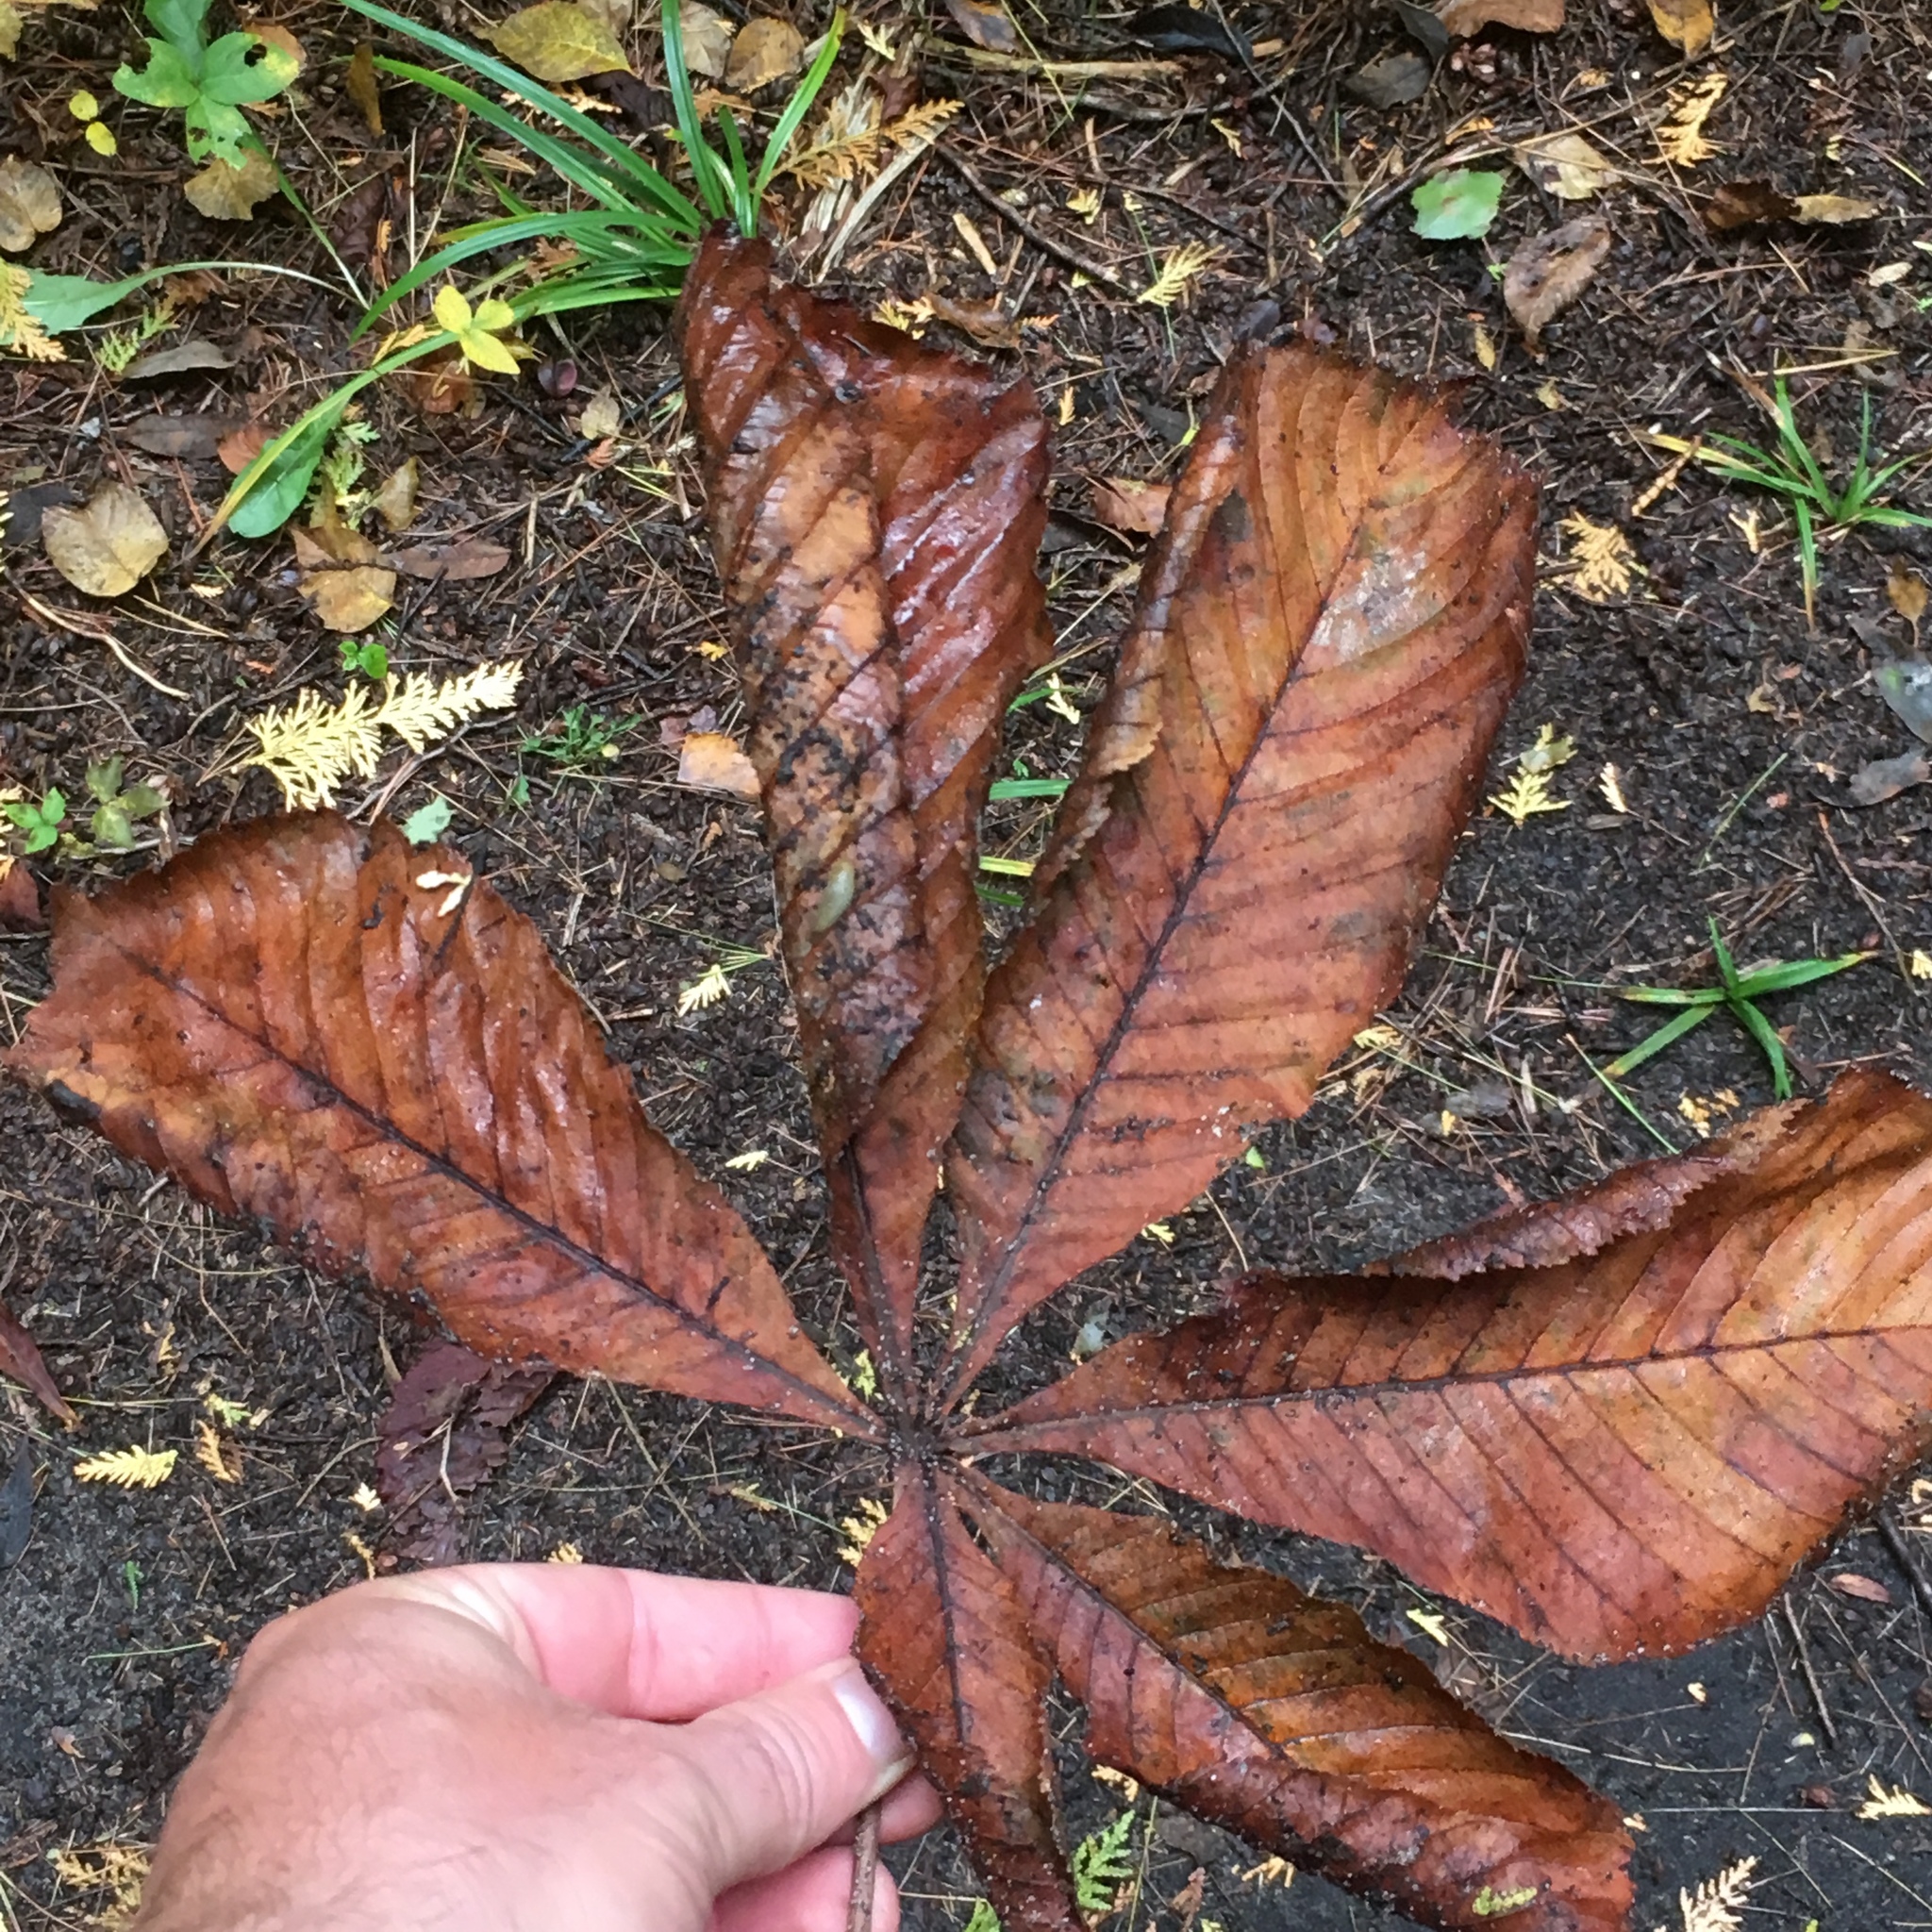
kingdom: Plantae
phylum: Tracheophyta
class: Magnoliopsida
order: Sapindales
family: Sapindaceae
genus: Aesculus
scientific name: Aesculus hippocastanum
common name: Horse-chestnut
